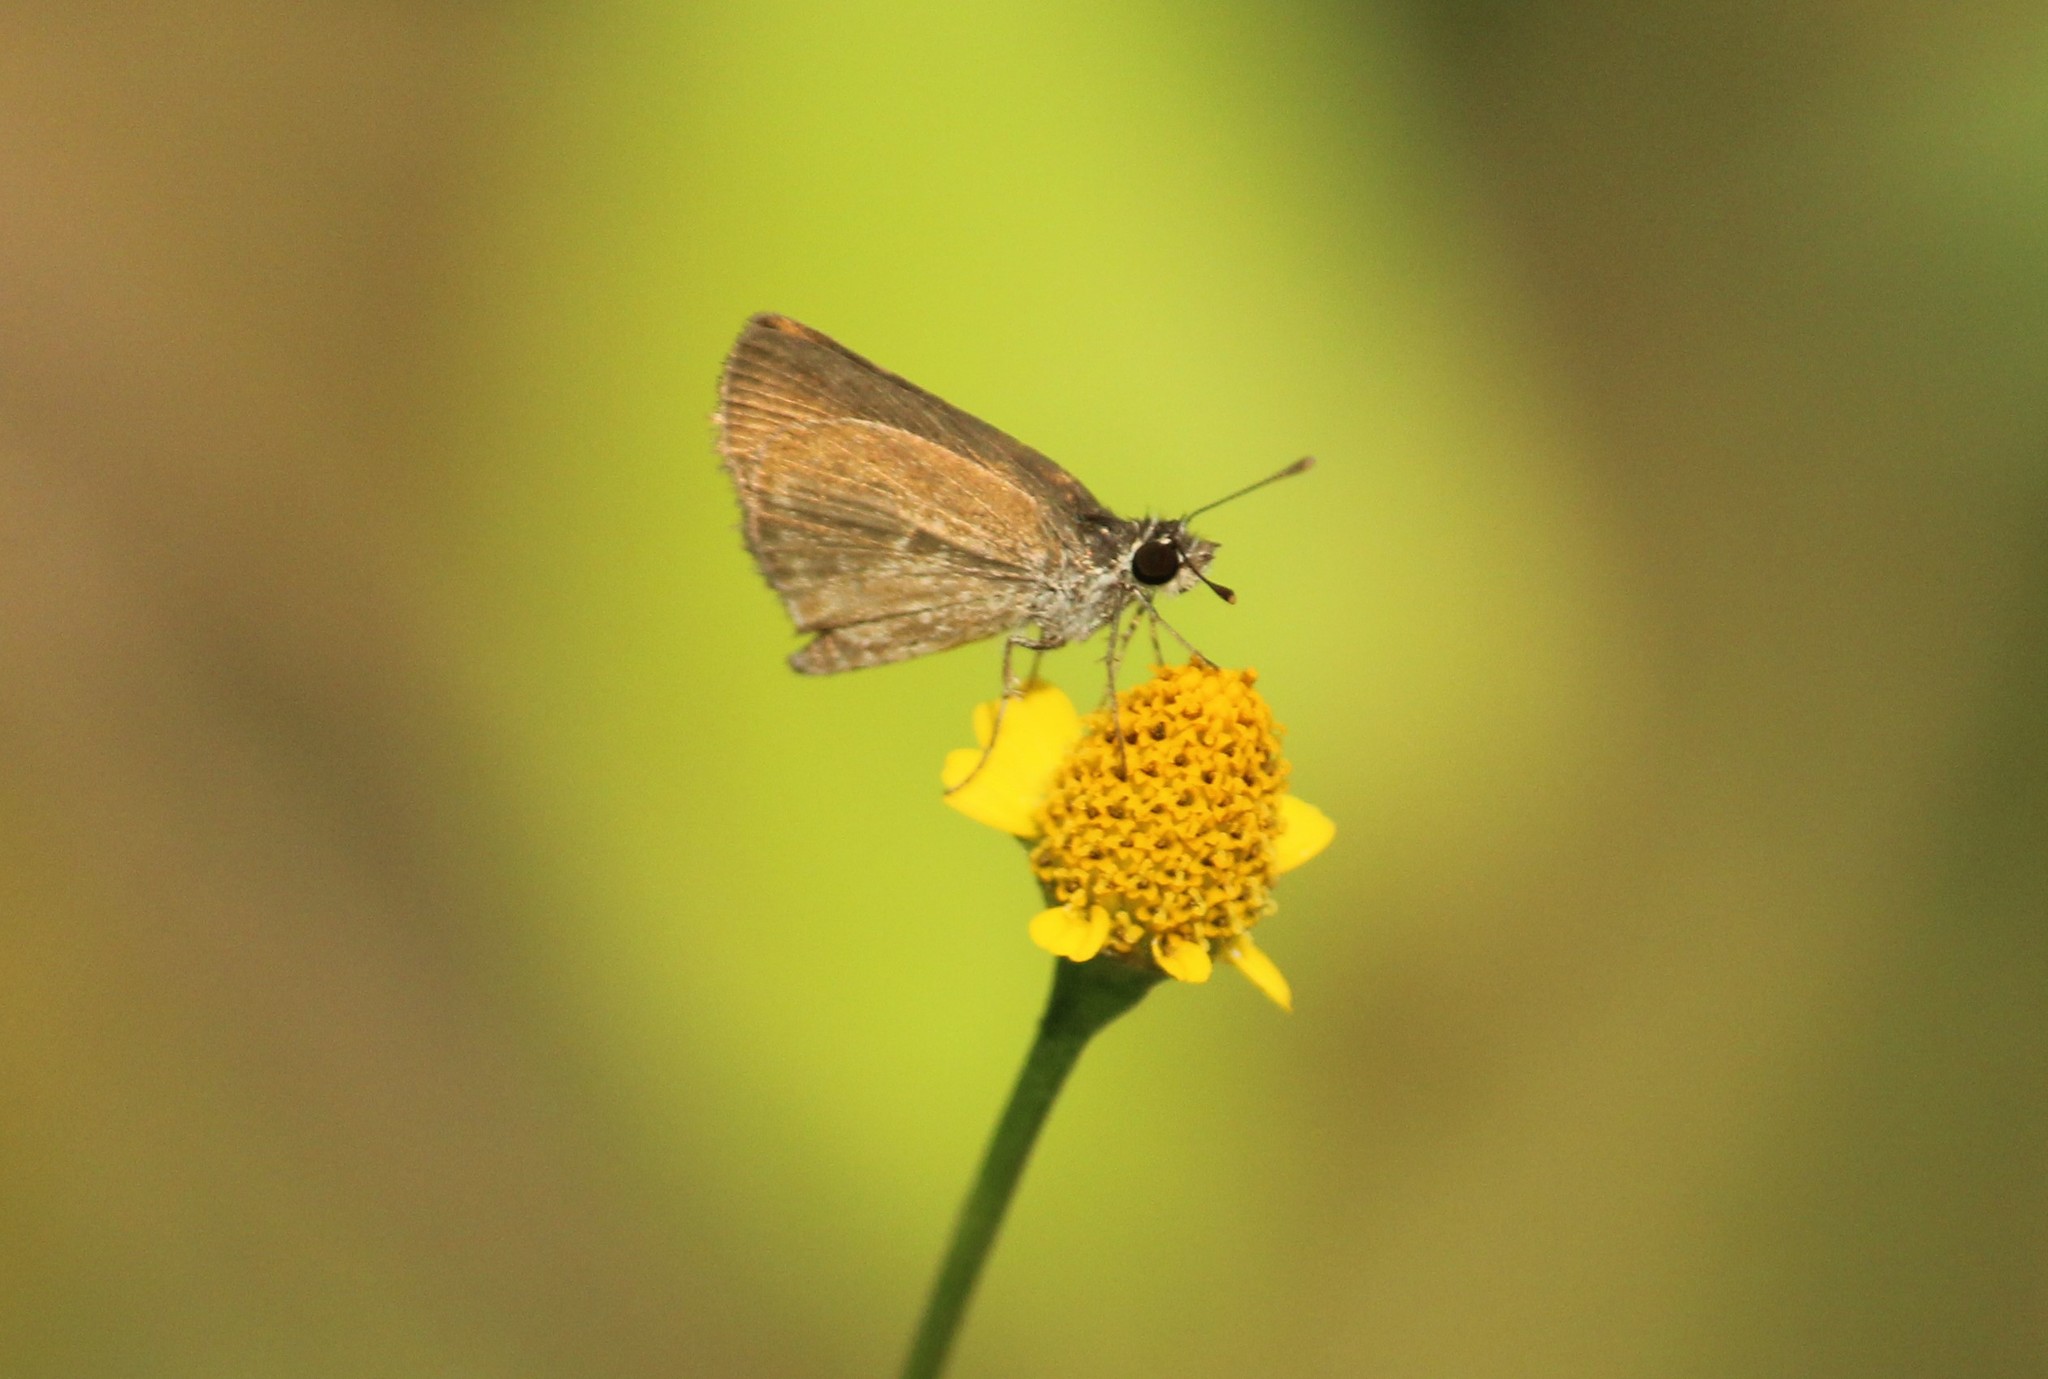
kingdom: Animalia
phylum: Arthropoda
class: Insecta
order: Lepidoptera
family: Hesperiidae
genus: Aeromachus
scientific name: Aeromachus pygmaeus
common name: Pygmy scrub hopper
